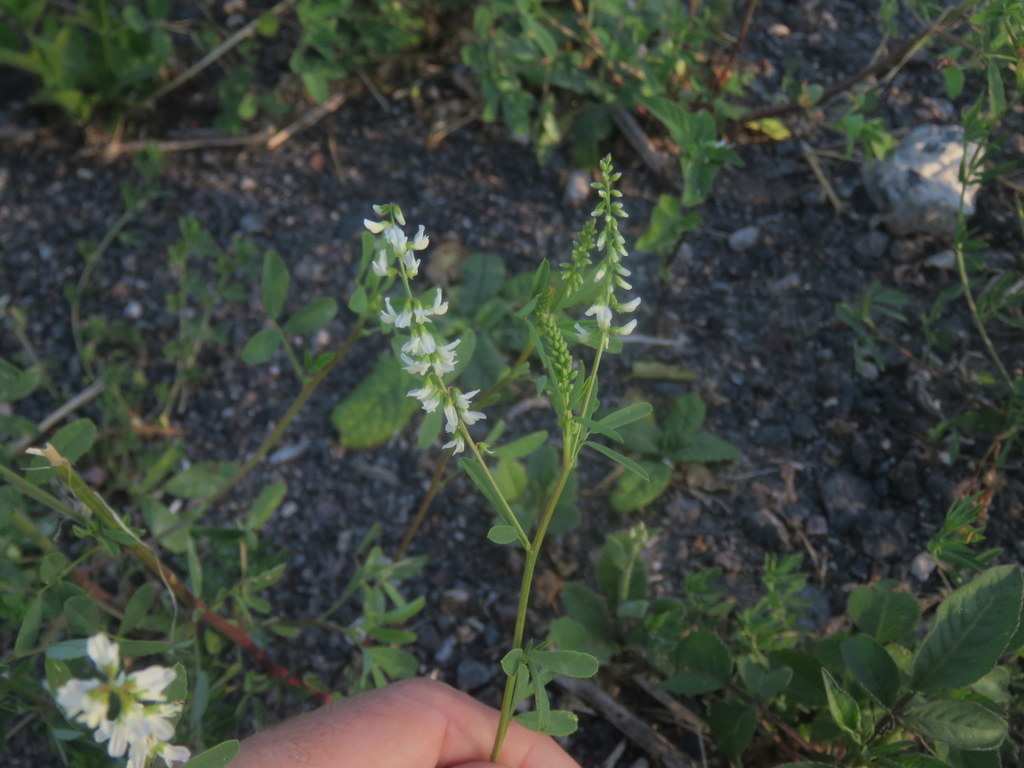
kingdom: Plantae
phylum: Tracheophyta
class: Magnoliopsida
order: Fabales
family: Fabaceae
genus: Melilotus
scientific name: Melilotus albus
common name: White melilot
